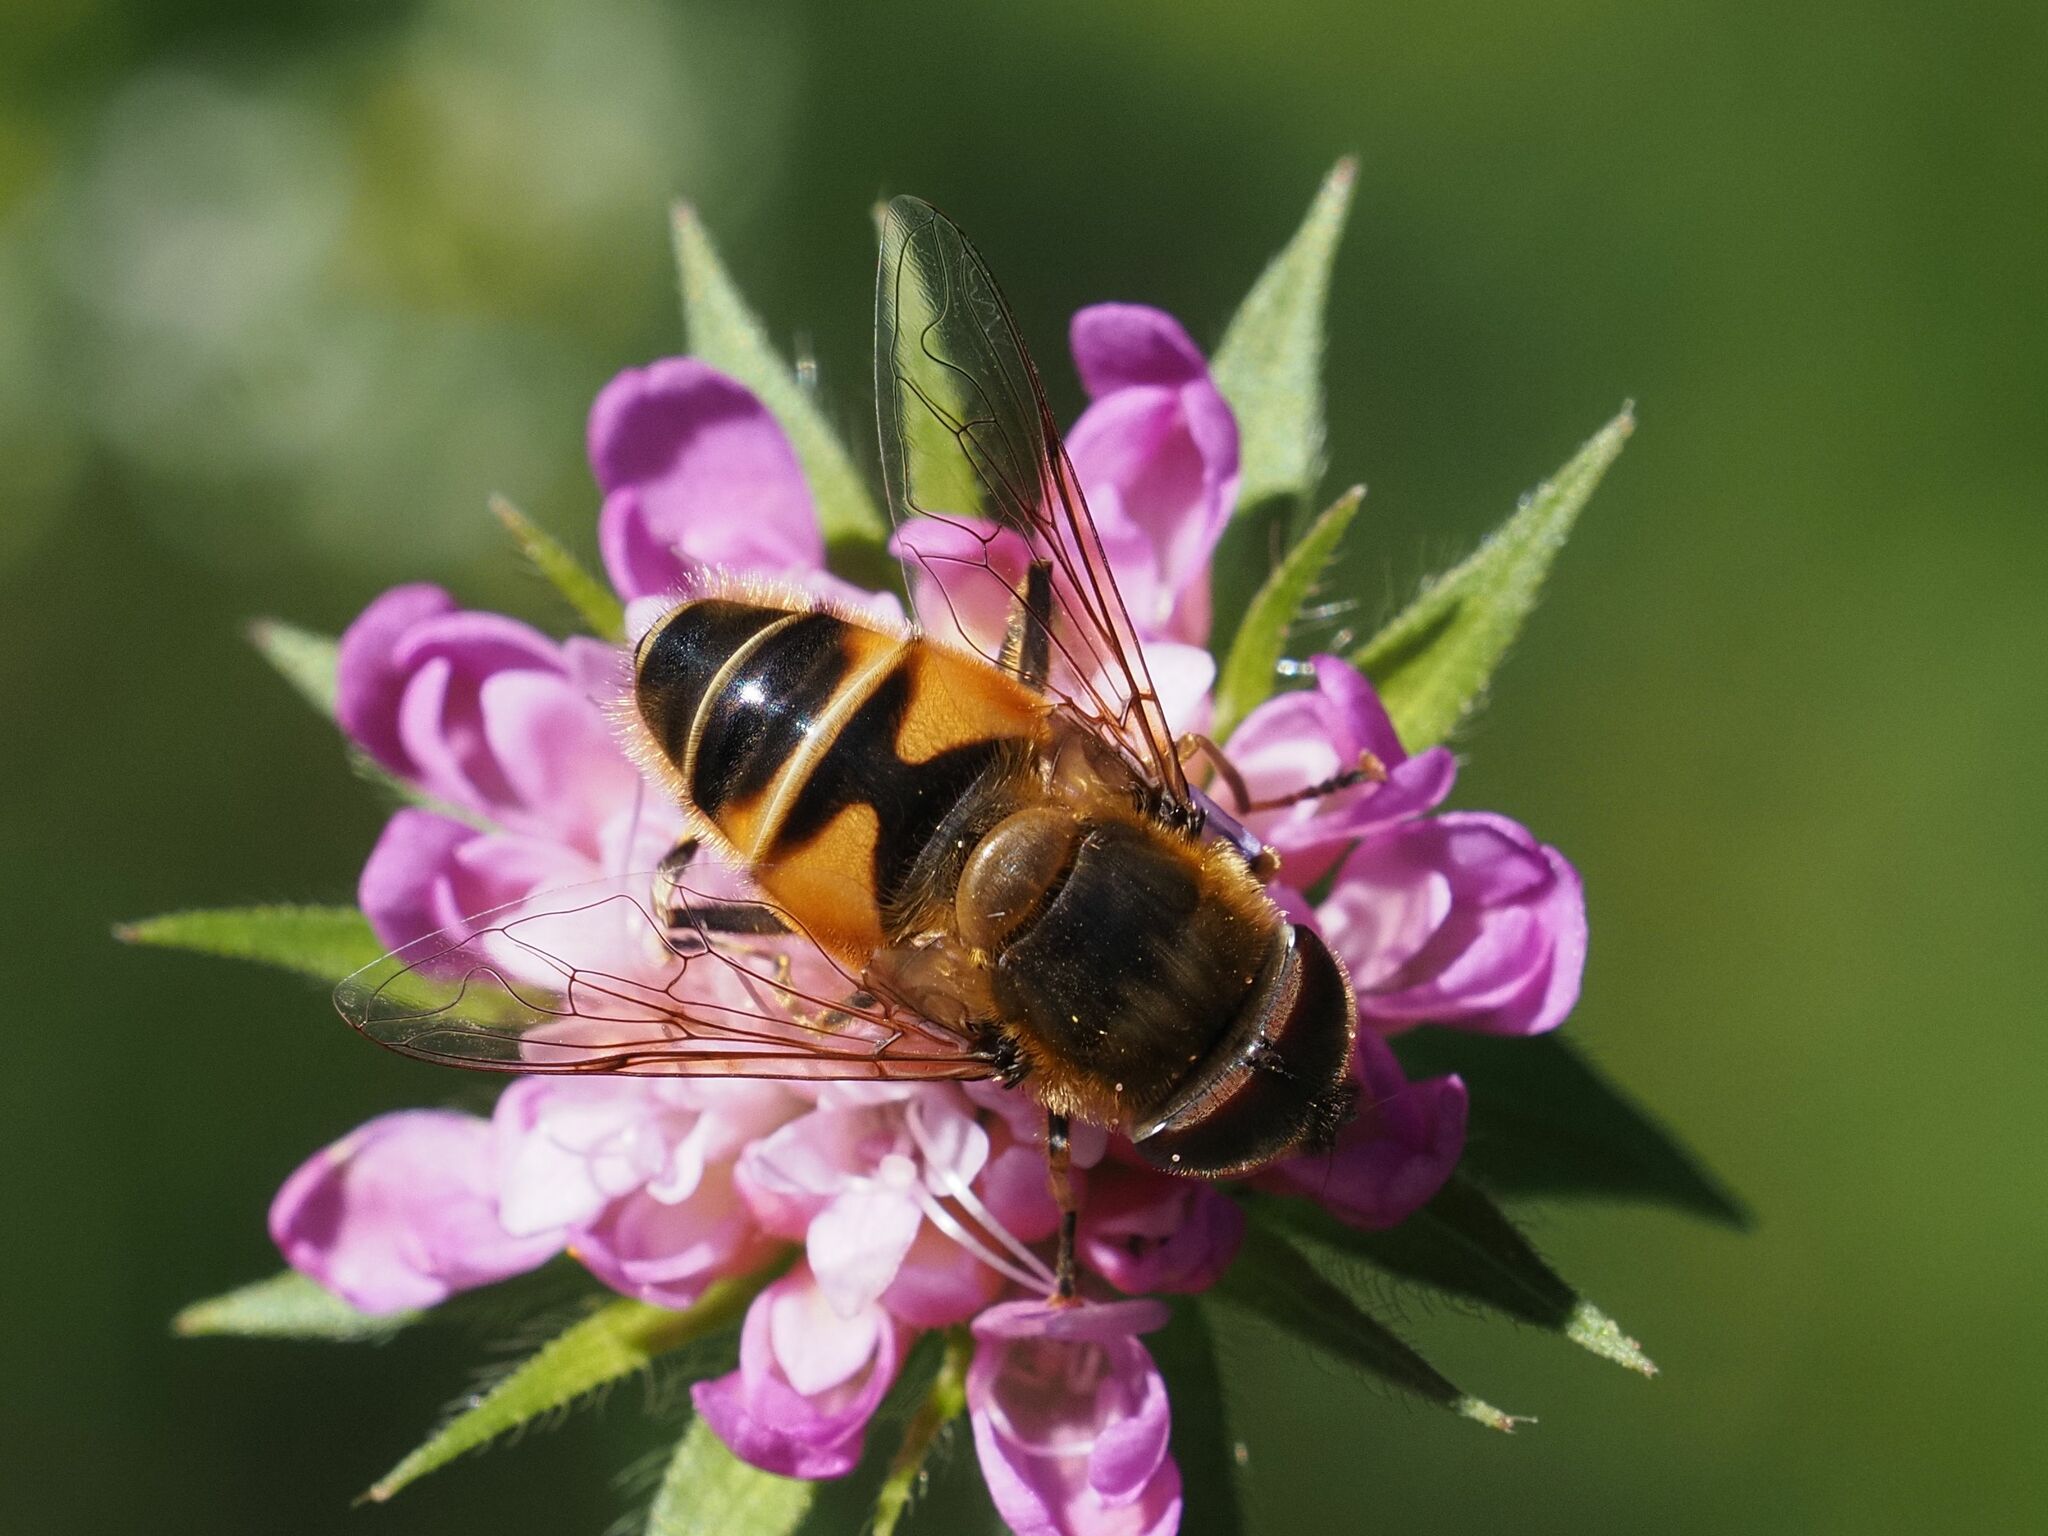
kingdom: Animalia
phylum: Arthropoda
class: Insecta
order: Diptera
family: Syrphidae
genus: Eristalis
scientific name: Eristalis pertinax
